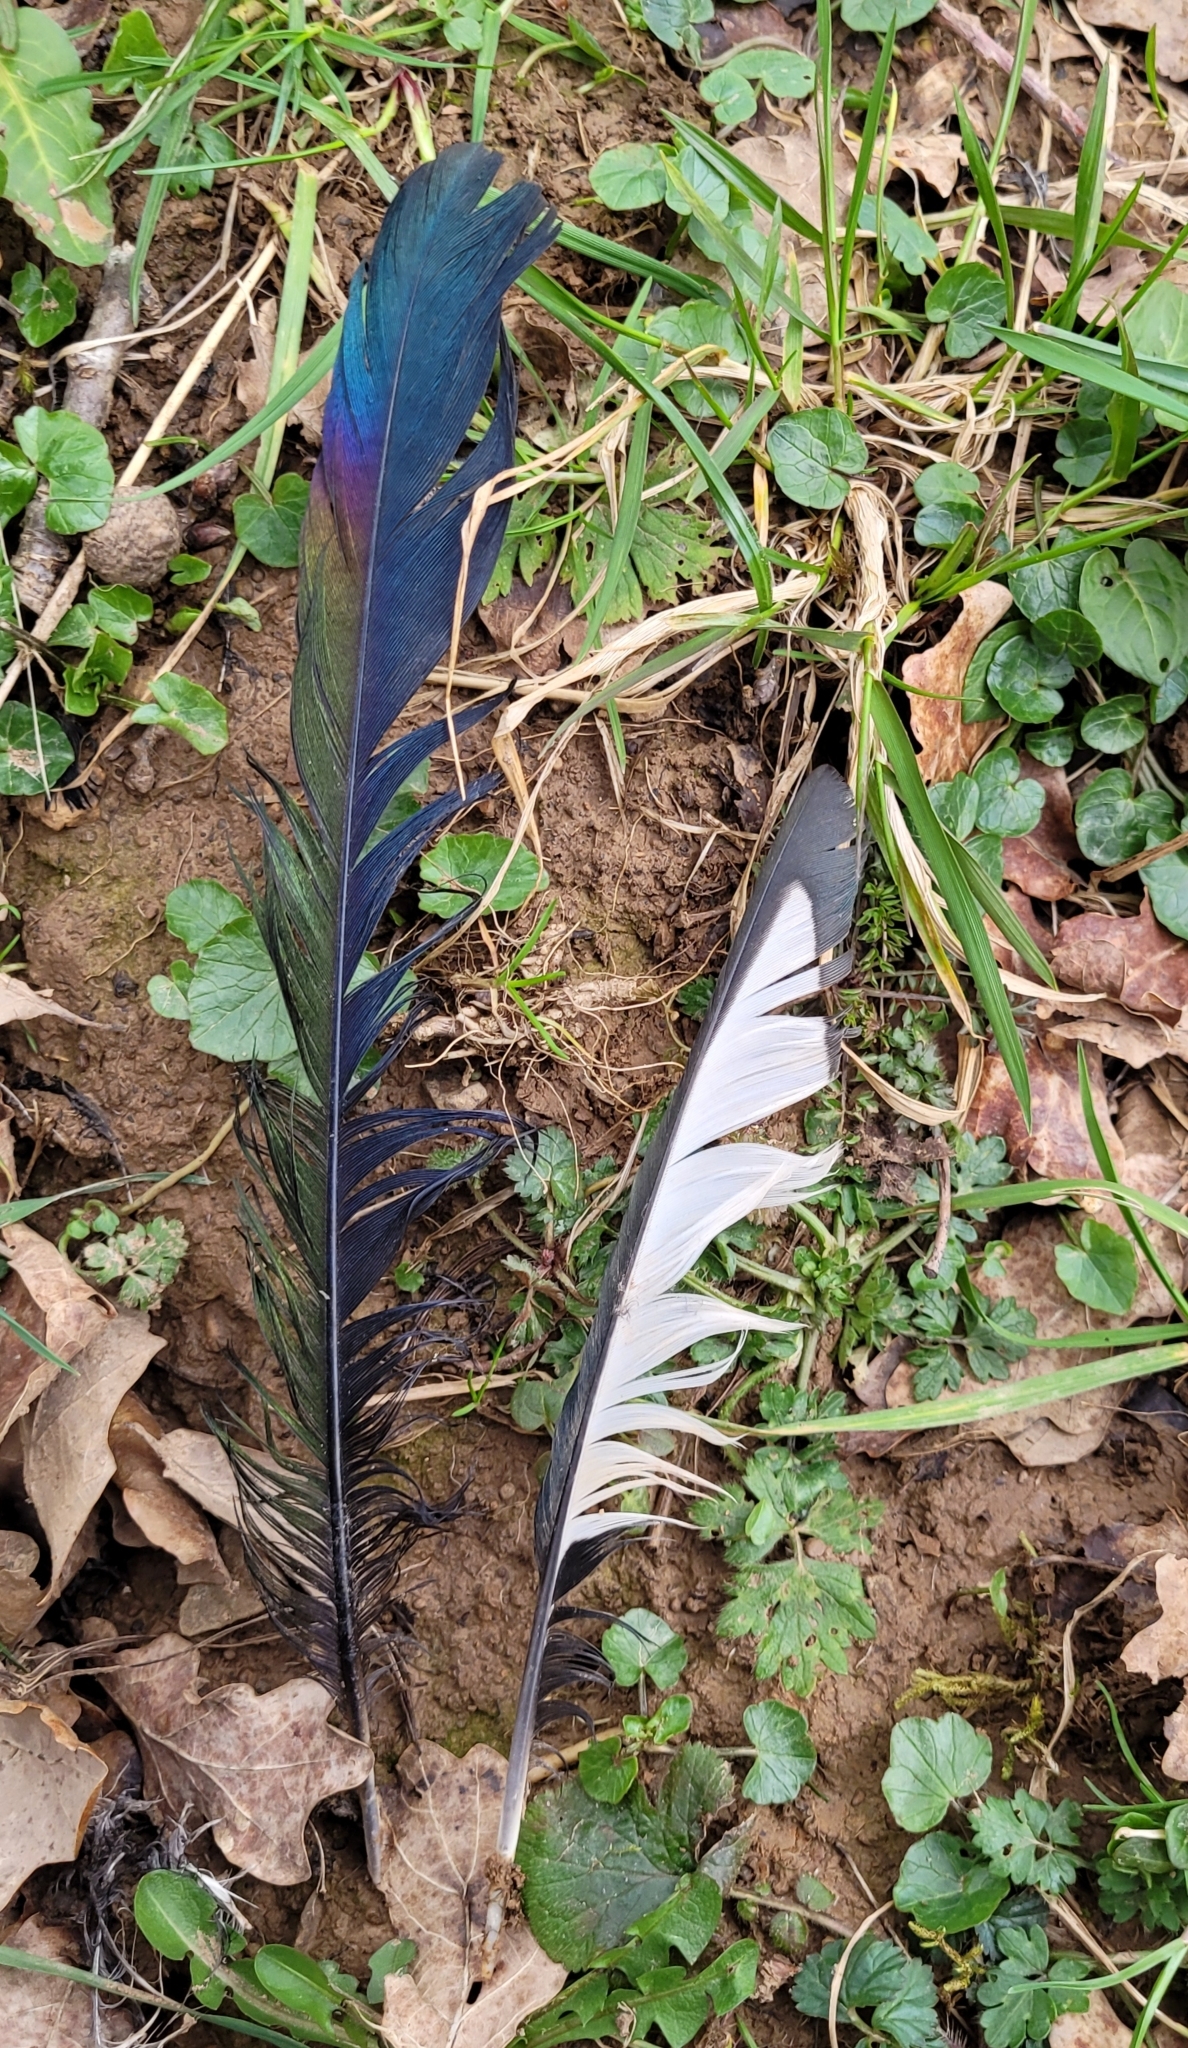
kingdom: Animalia
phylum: Chordata
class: Aves
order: Passeriformes
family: Corvidae
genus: Pica
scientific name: Pica pica
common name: Eurasian magpie
